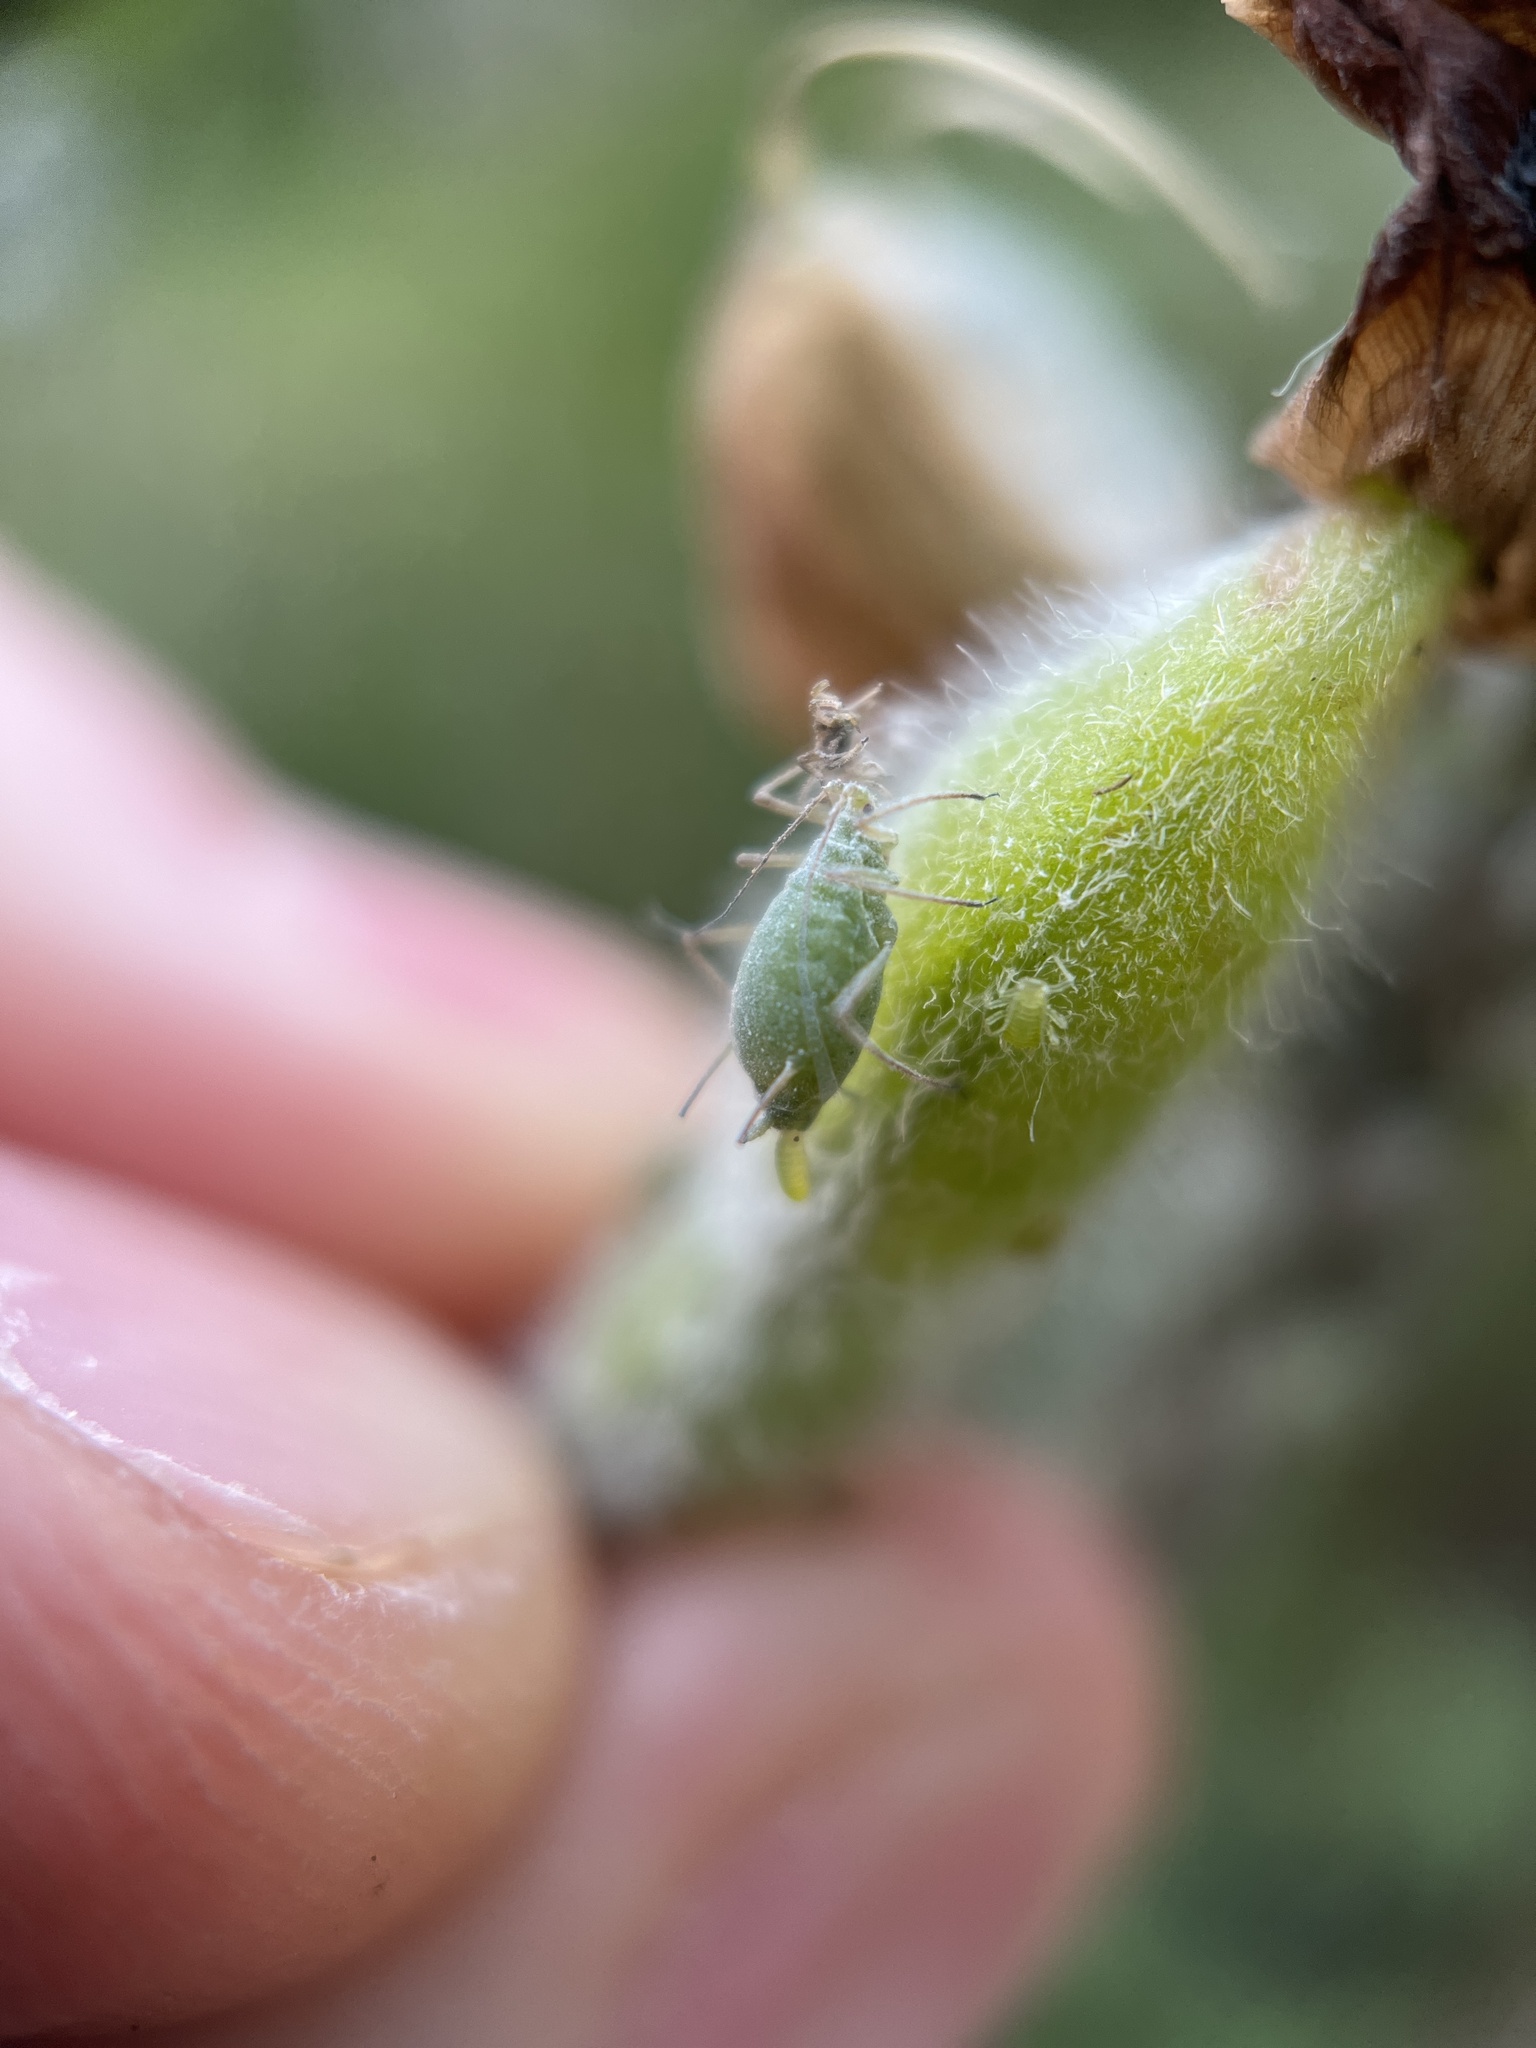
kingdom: Animalia
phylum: Arthropoda
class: Insecta
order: Hemiptera
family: Aphididae
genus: Macrosiphum
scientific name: Macrosiphum albifrons
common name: Lupine aphid
